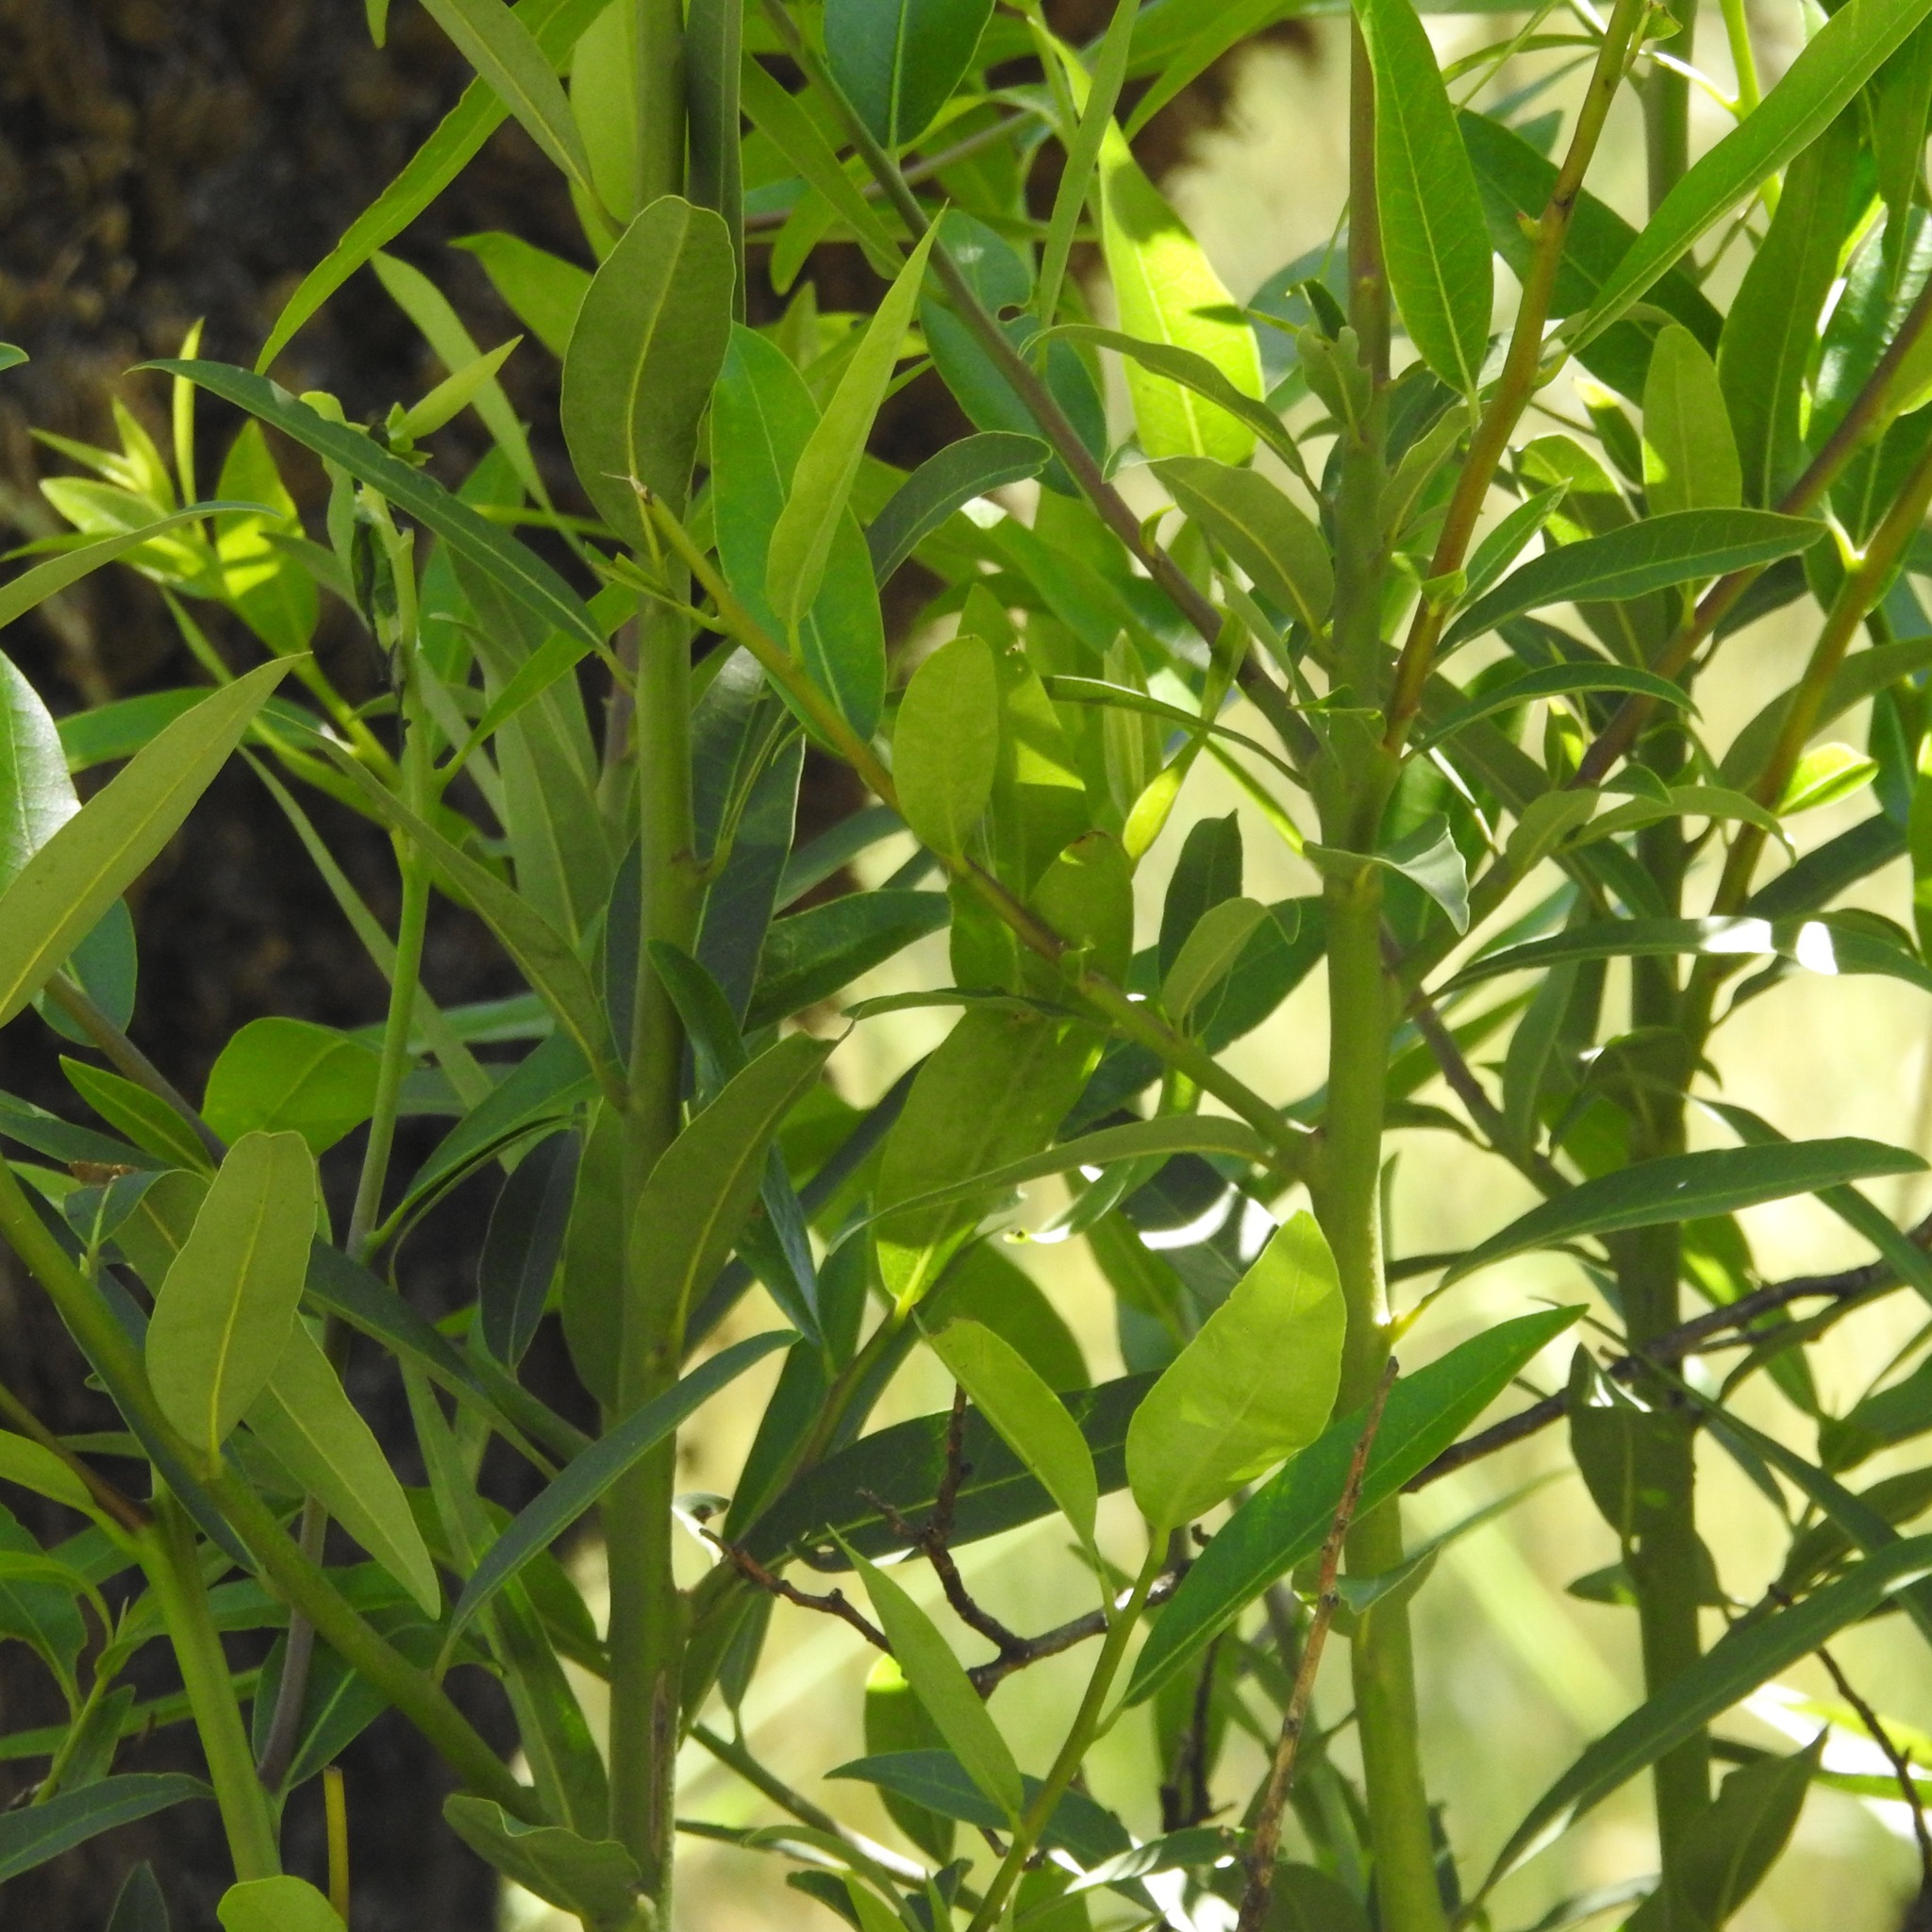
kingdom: Plantae
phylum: Tracheophyta
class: Magnoliopsida
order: Laurales
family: Lauraceae
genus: Umbellularia
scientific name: Umbellularia californica
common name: California bay
